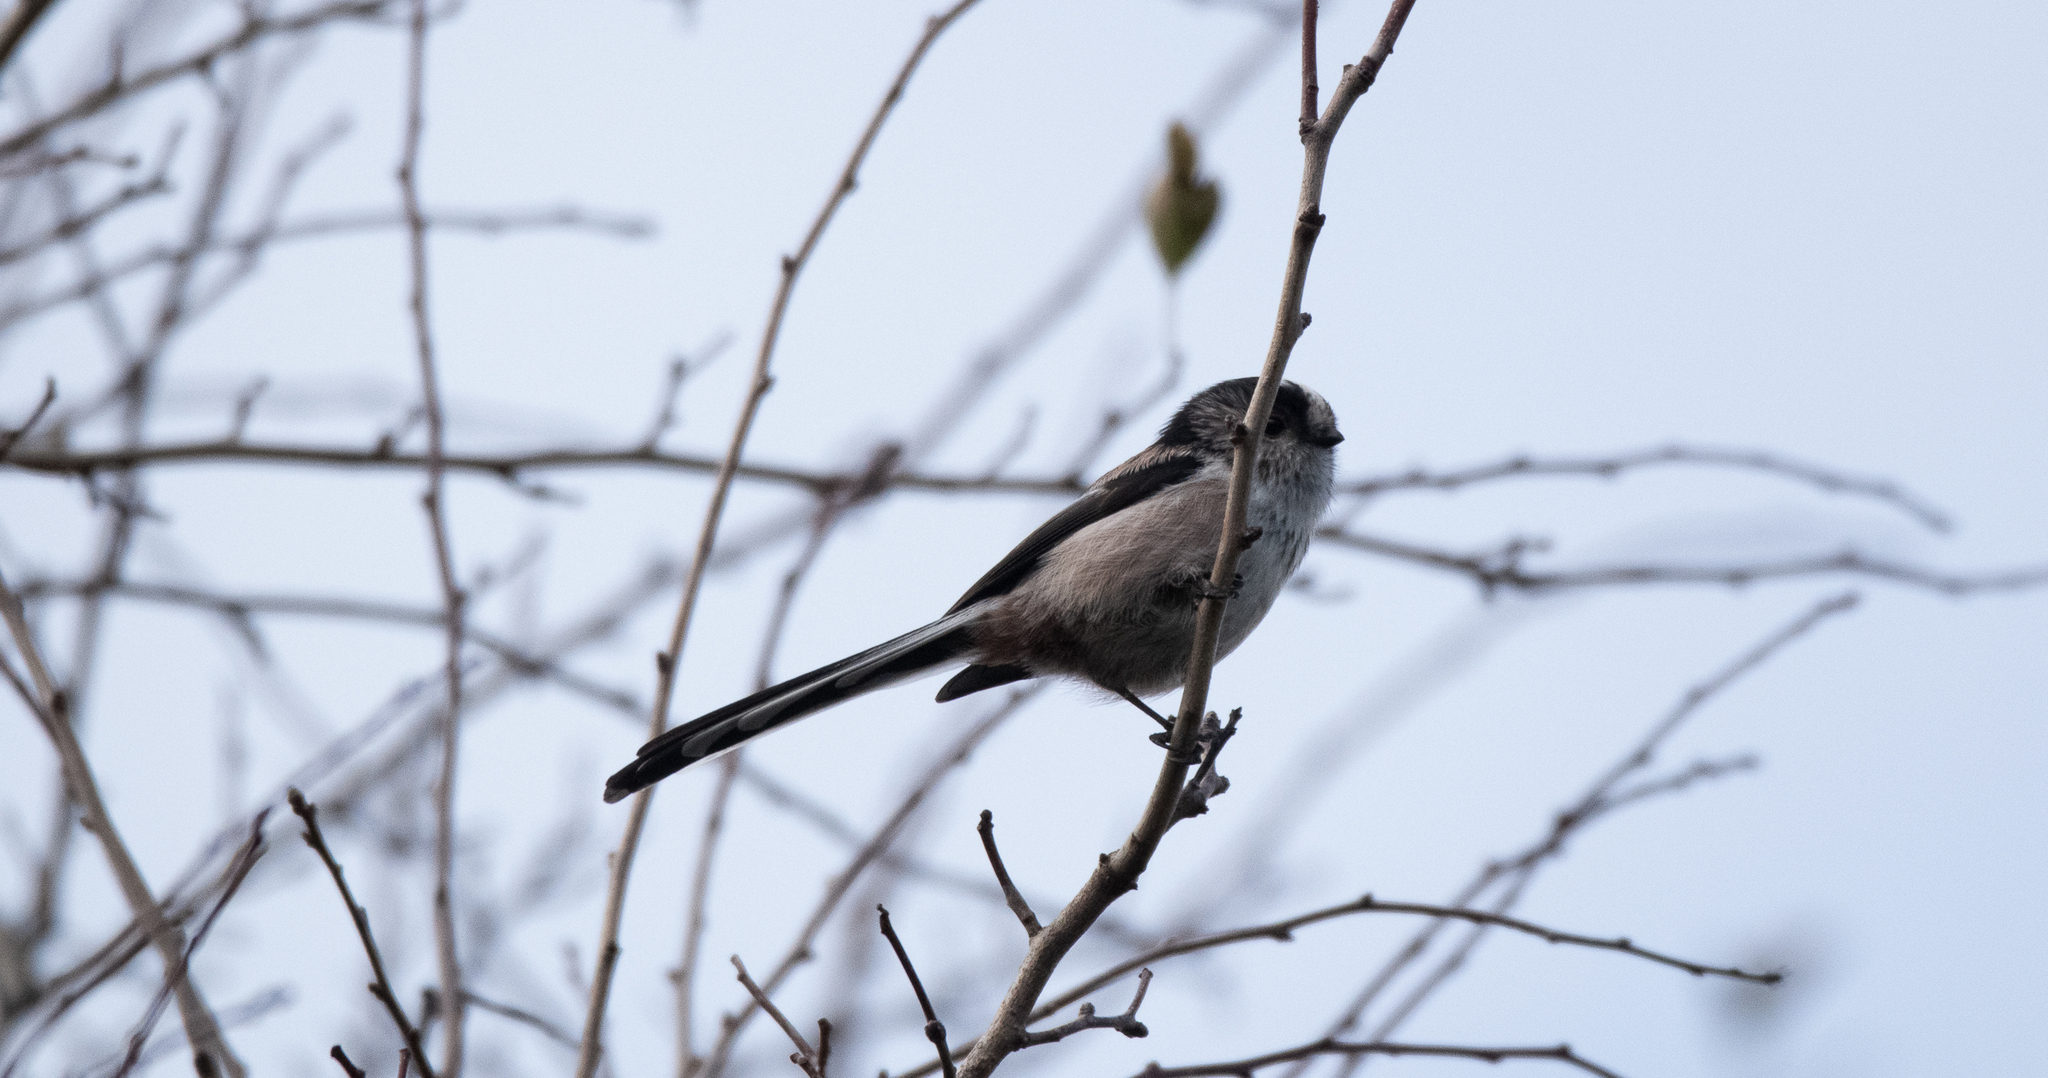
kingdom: Animalia
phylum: Chordata
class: Aves
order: Passeriformes
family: Aegithalidae
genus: Aegithalos
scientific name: Aegithalos caudatus
